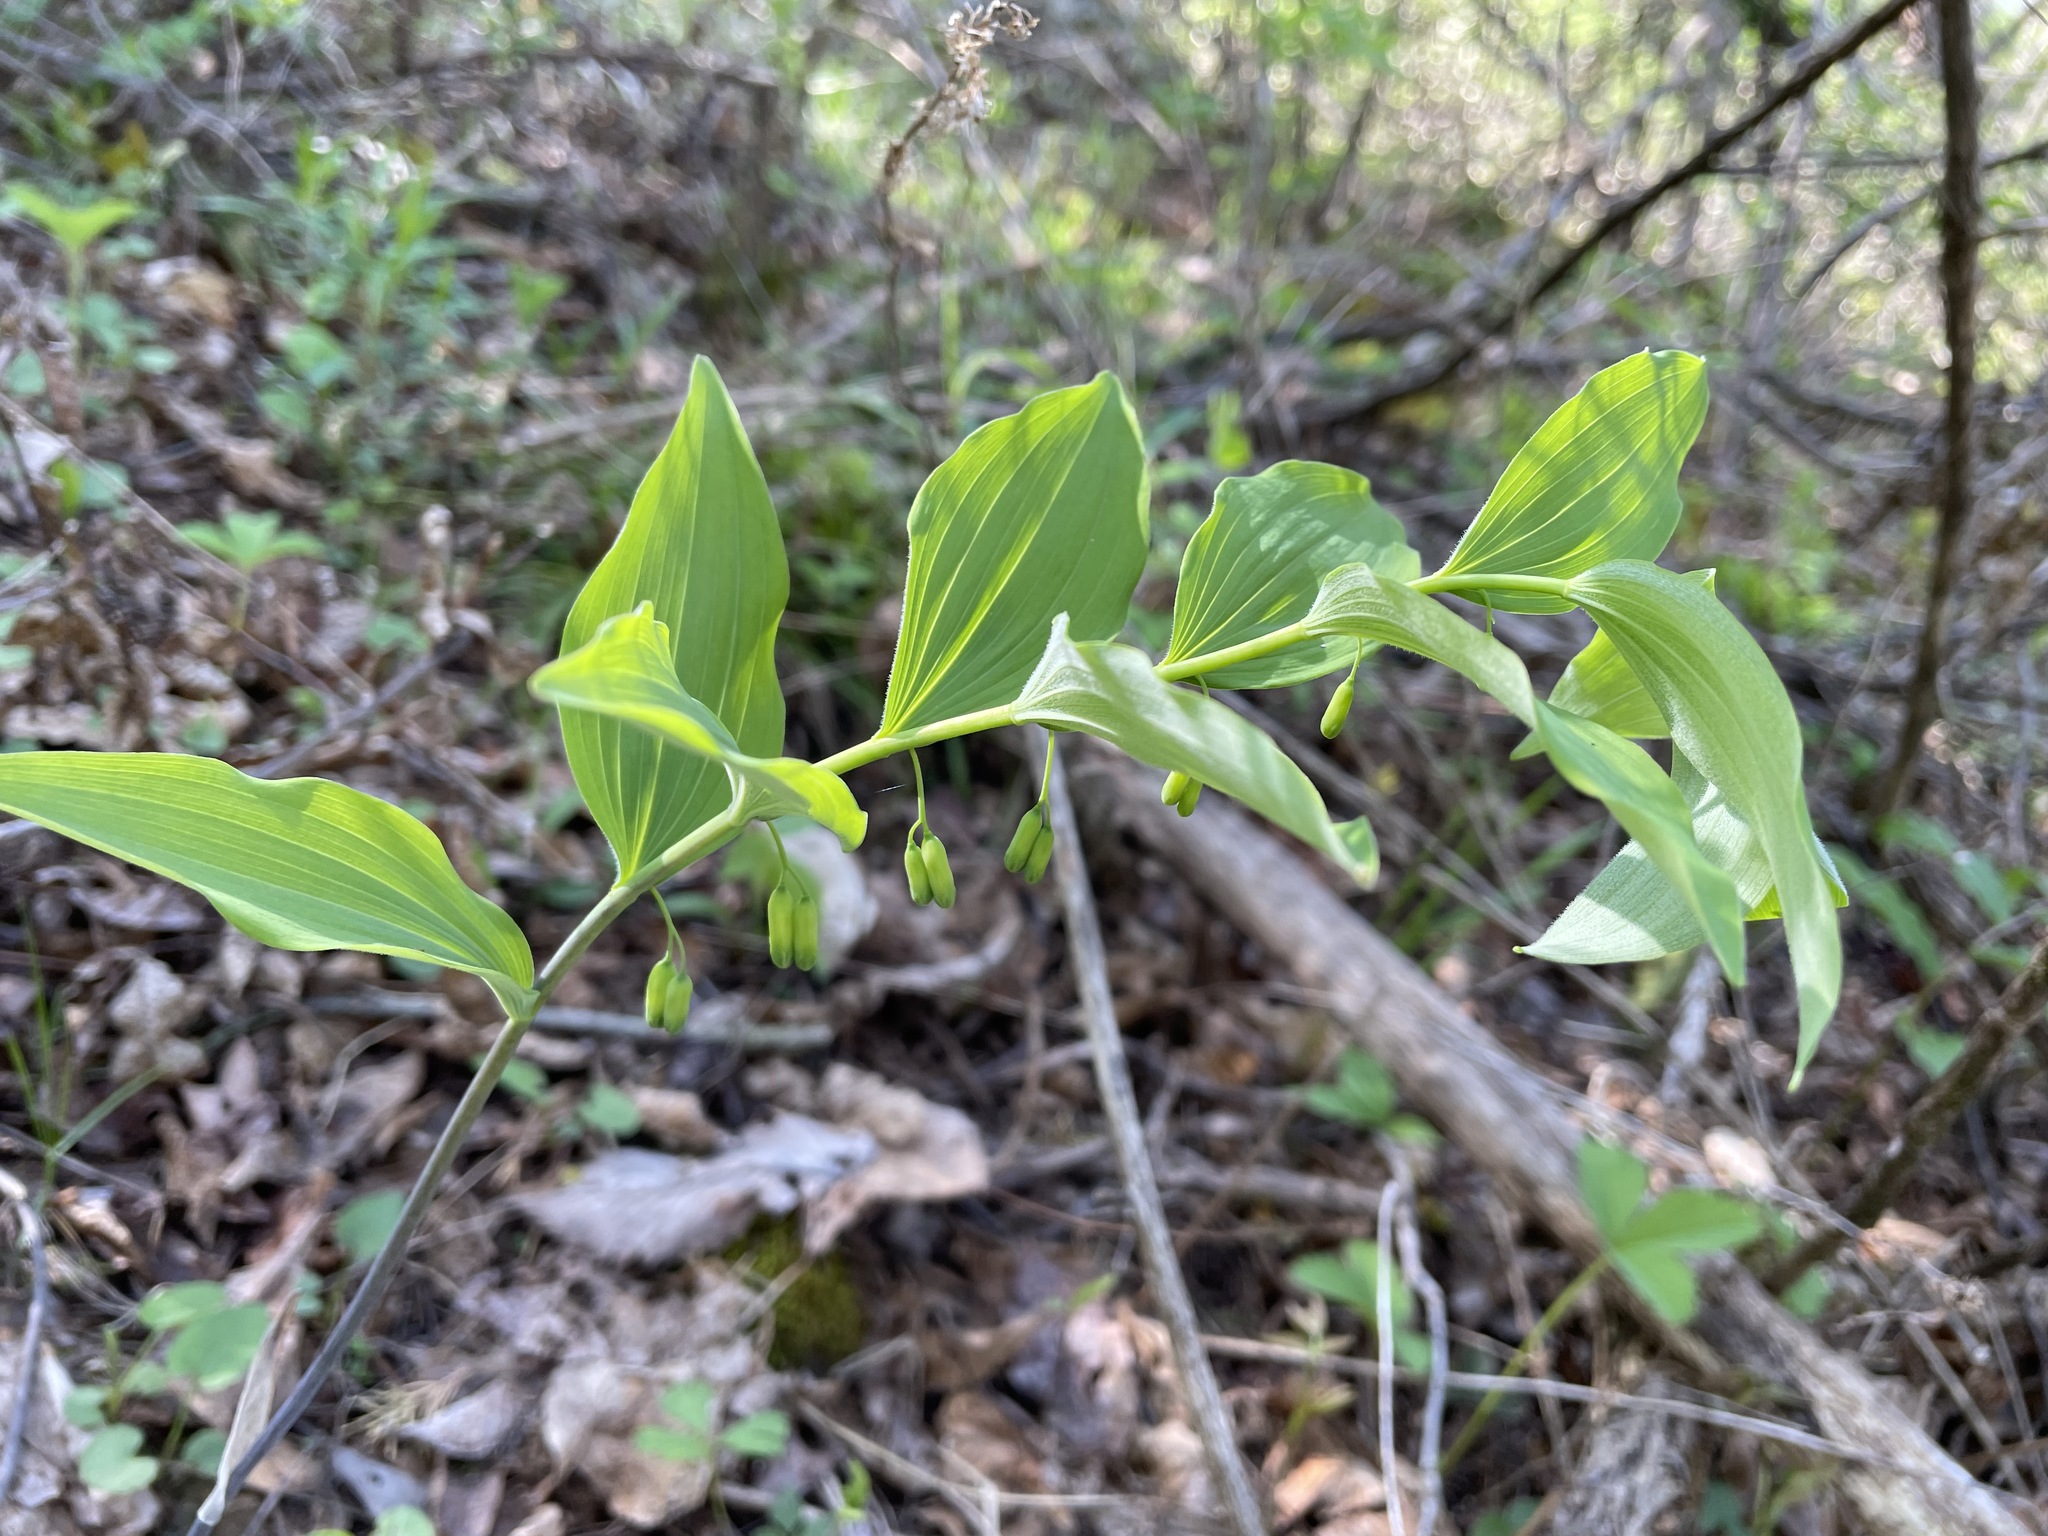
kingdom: Plantae
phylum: Tracheophyta
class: Liliopsida
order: Asparagales
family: Asparagaceae
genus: Polygonatum
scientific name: Polygonatum pubescens
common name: Downy solomon's seal
